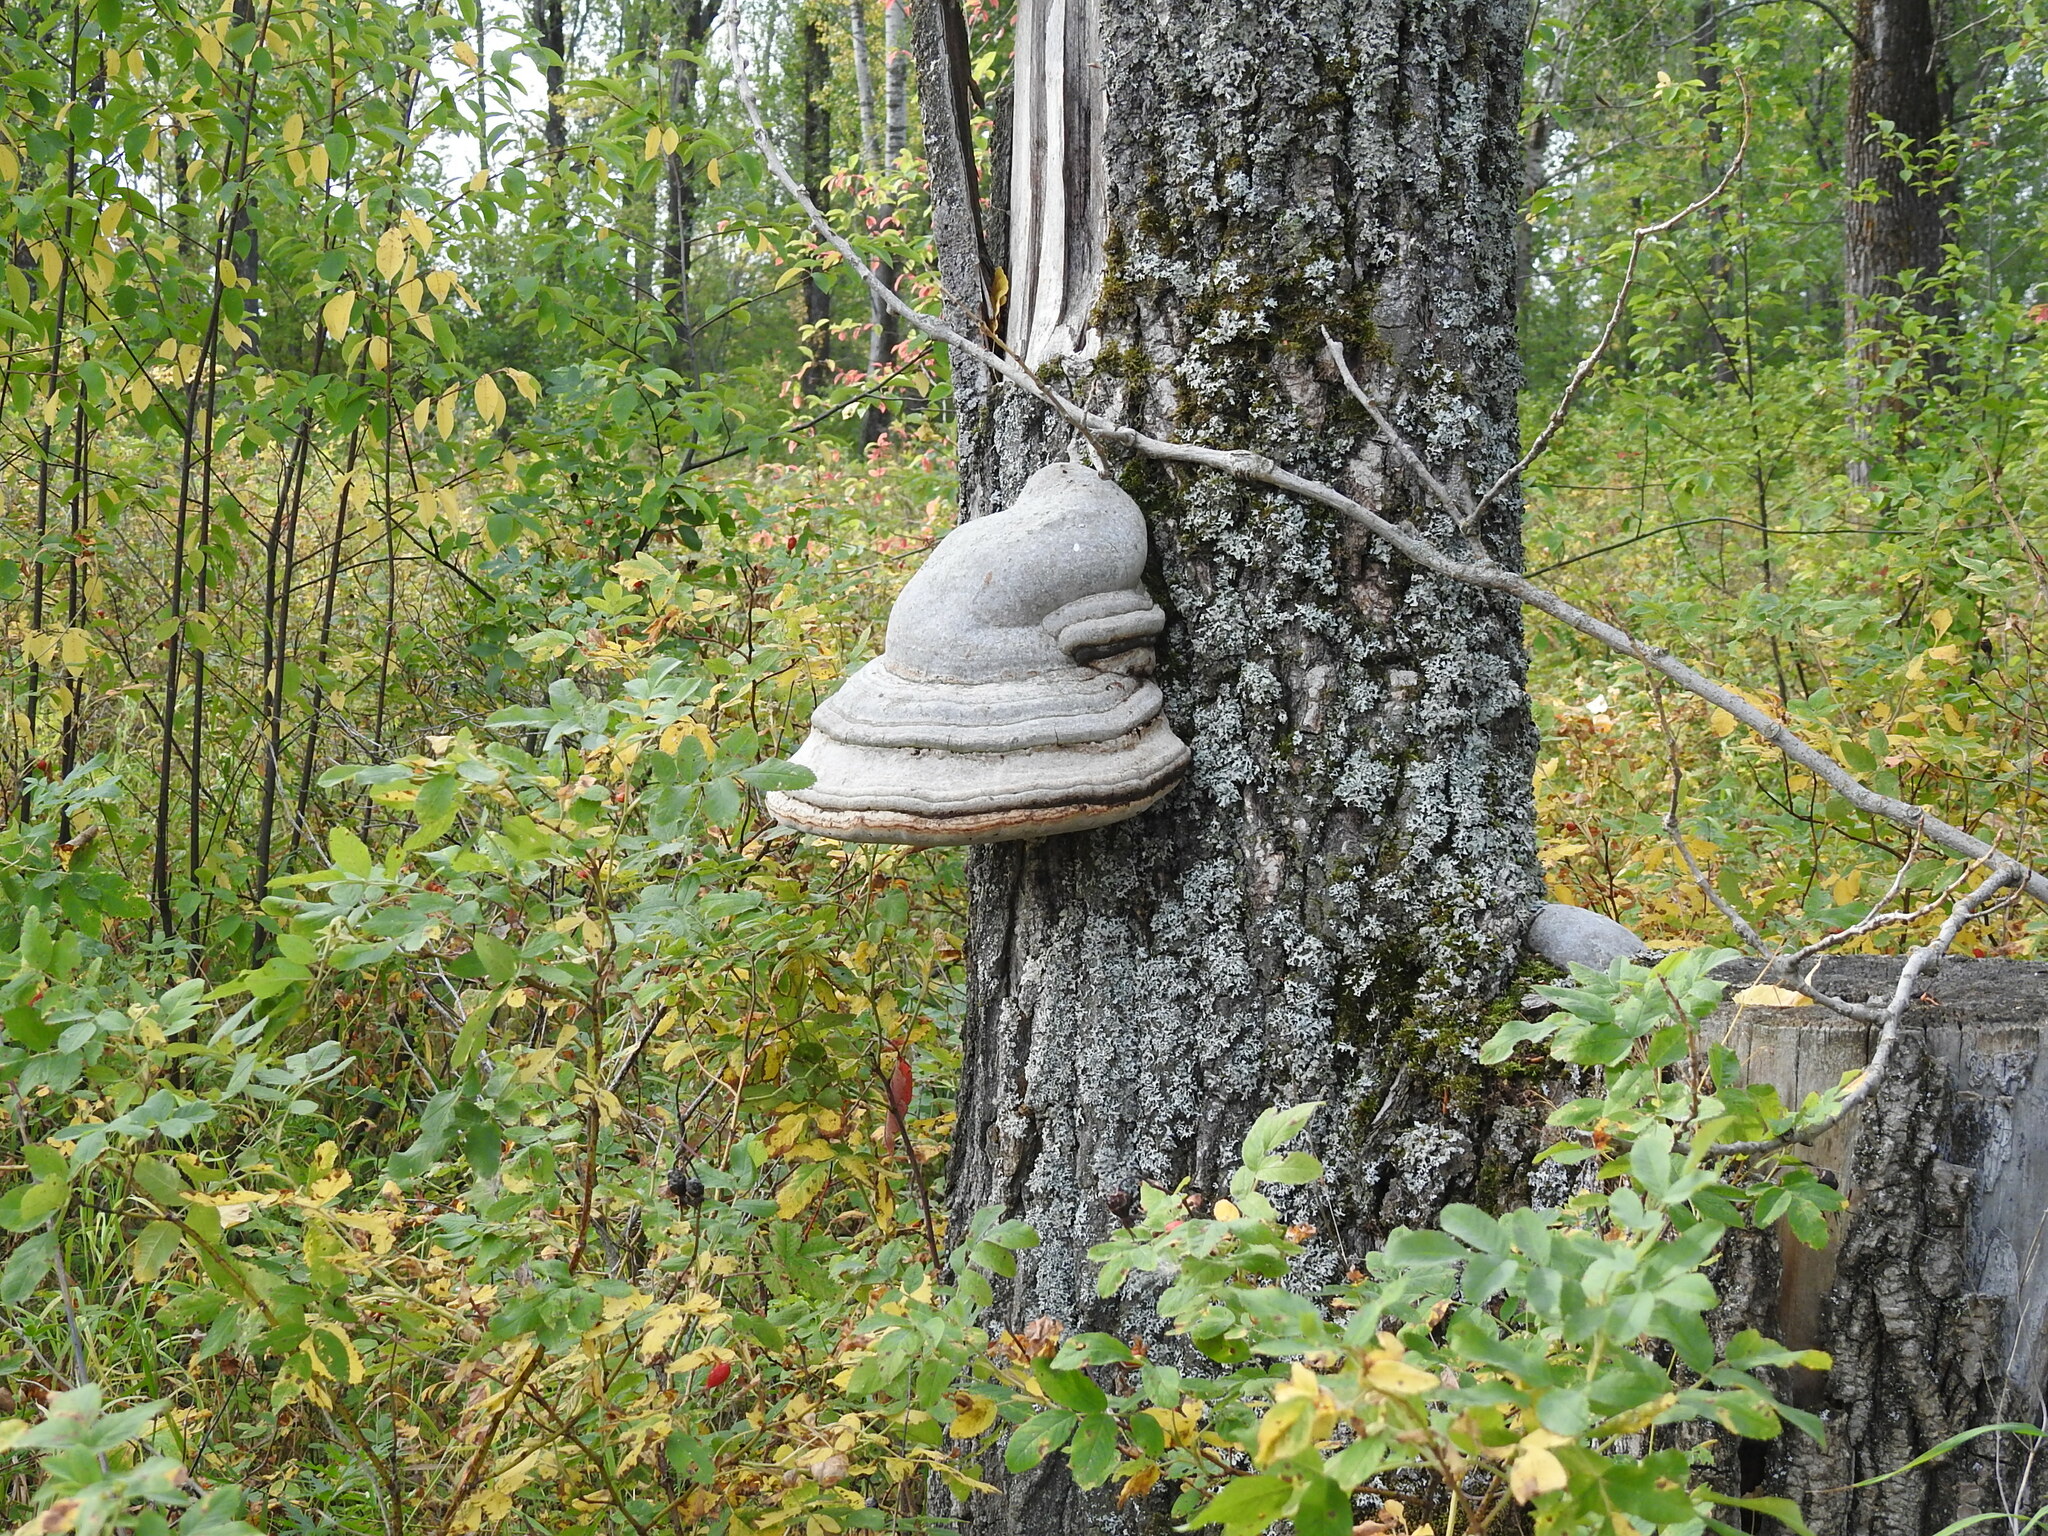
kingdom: Fungi
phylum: Basidiomycota
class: Agaricomycetes
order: Polyporales
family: Polyporaceae
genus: Fomes
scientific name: Fomes fomentarius
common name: Hoof fungus
